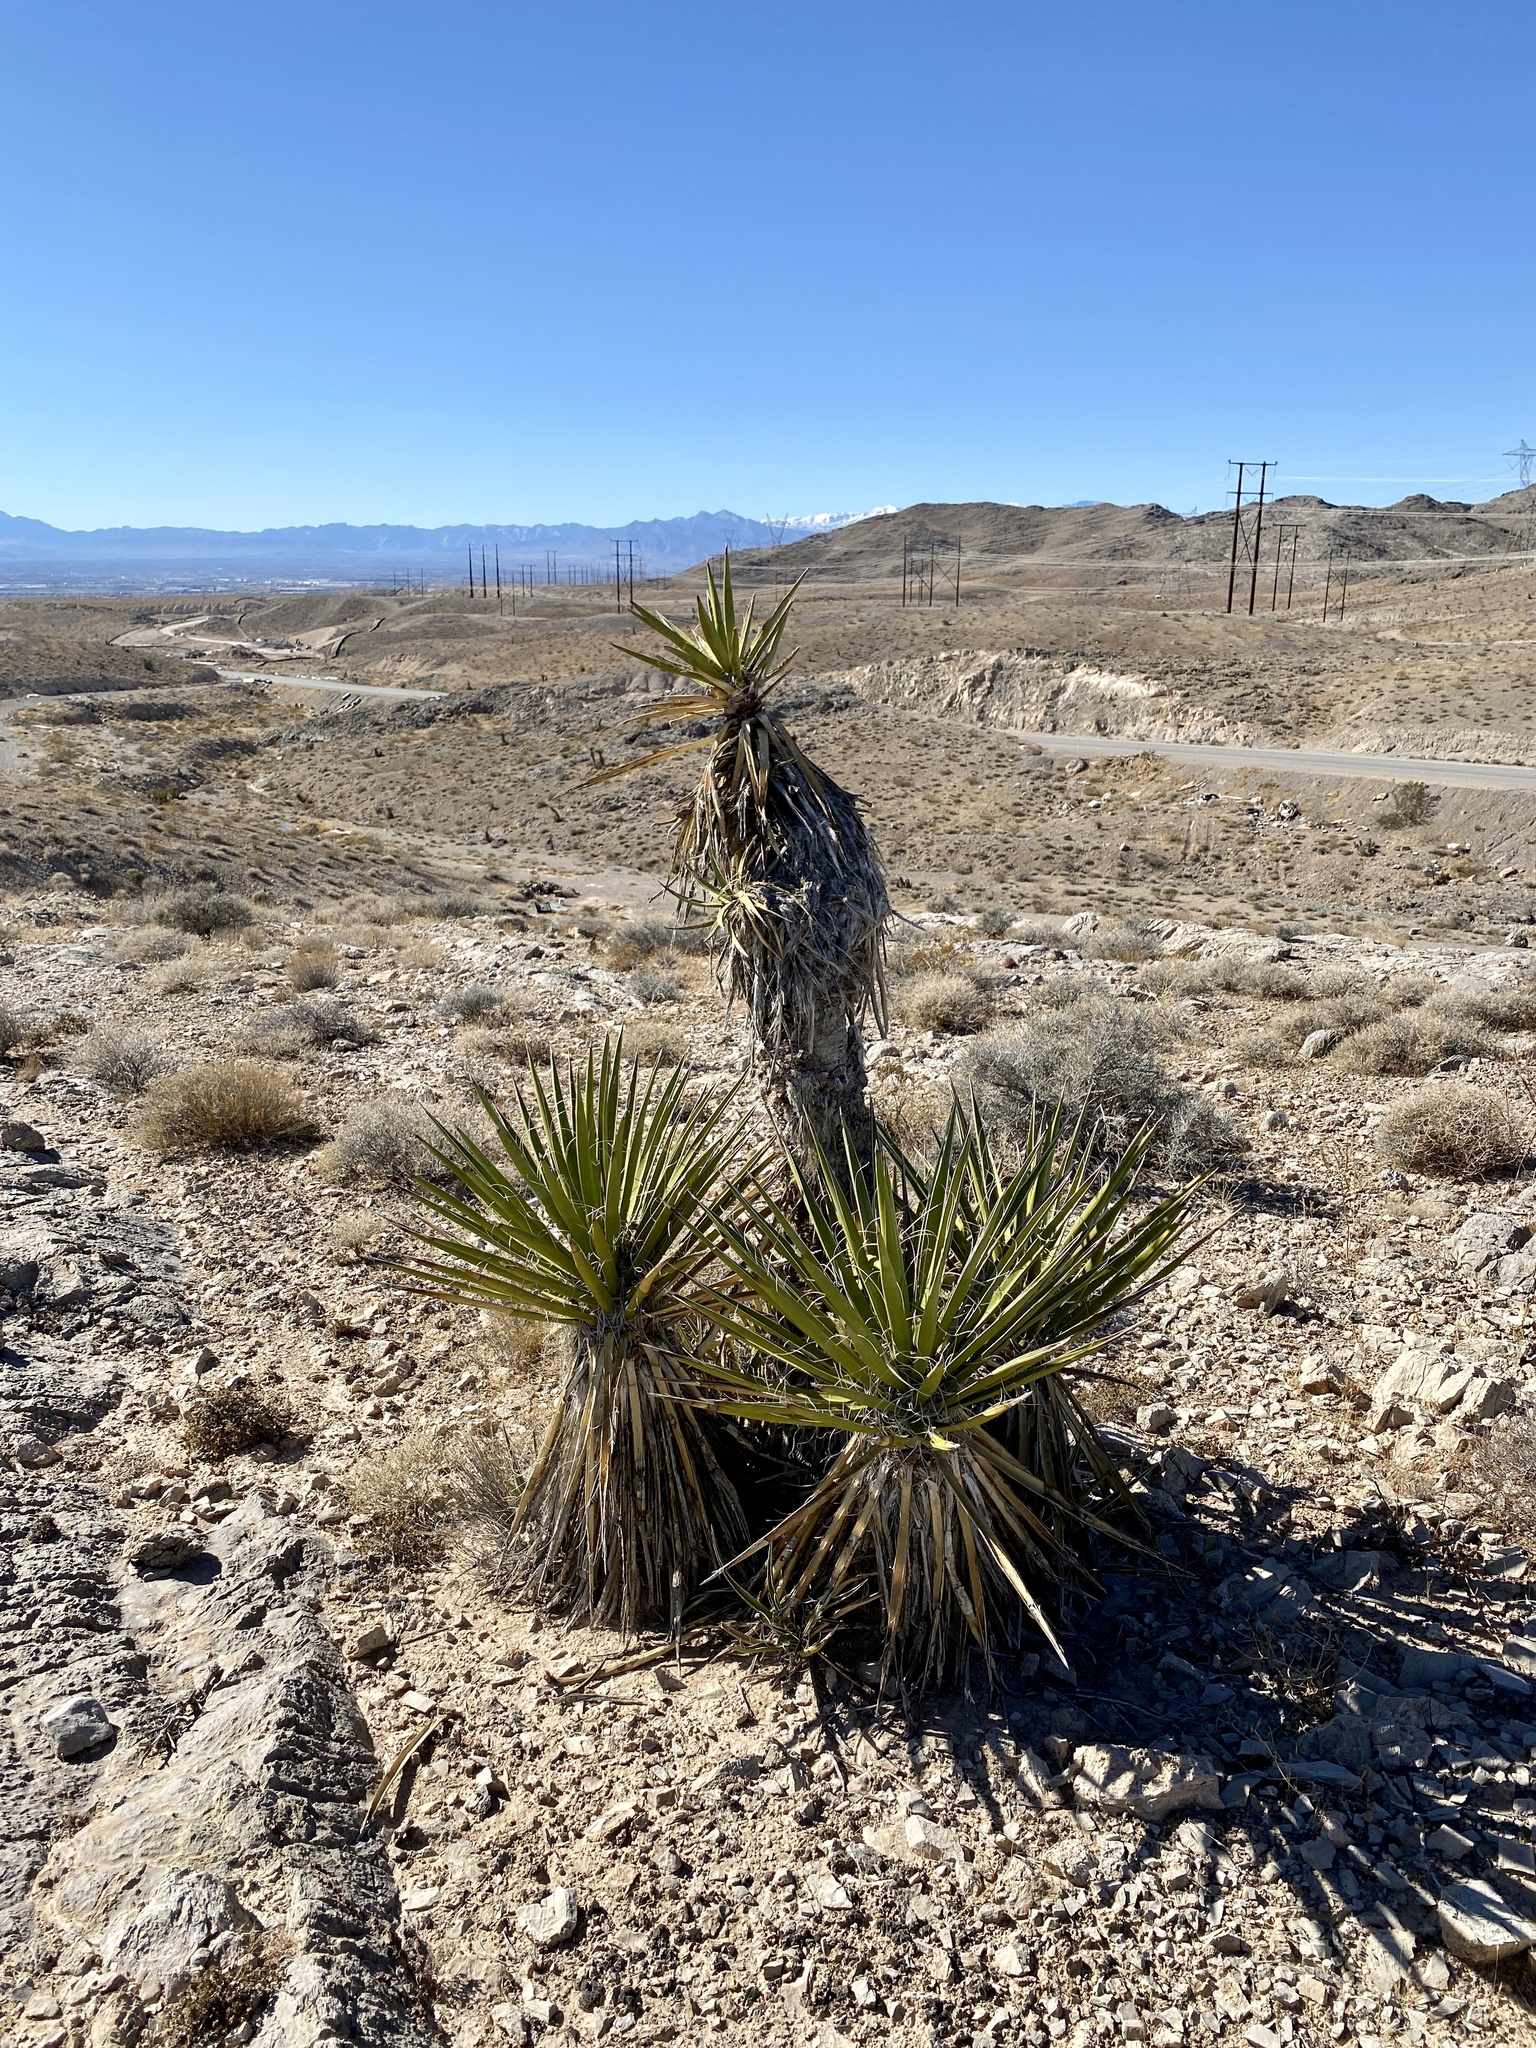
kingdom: Plantae
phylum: Tracheophyta
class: Liliopsida
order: Asparagales
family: Asparagaceae
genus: Yucca
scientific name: Yucca schidigera
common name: Mojave yucca
